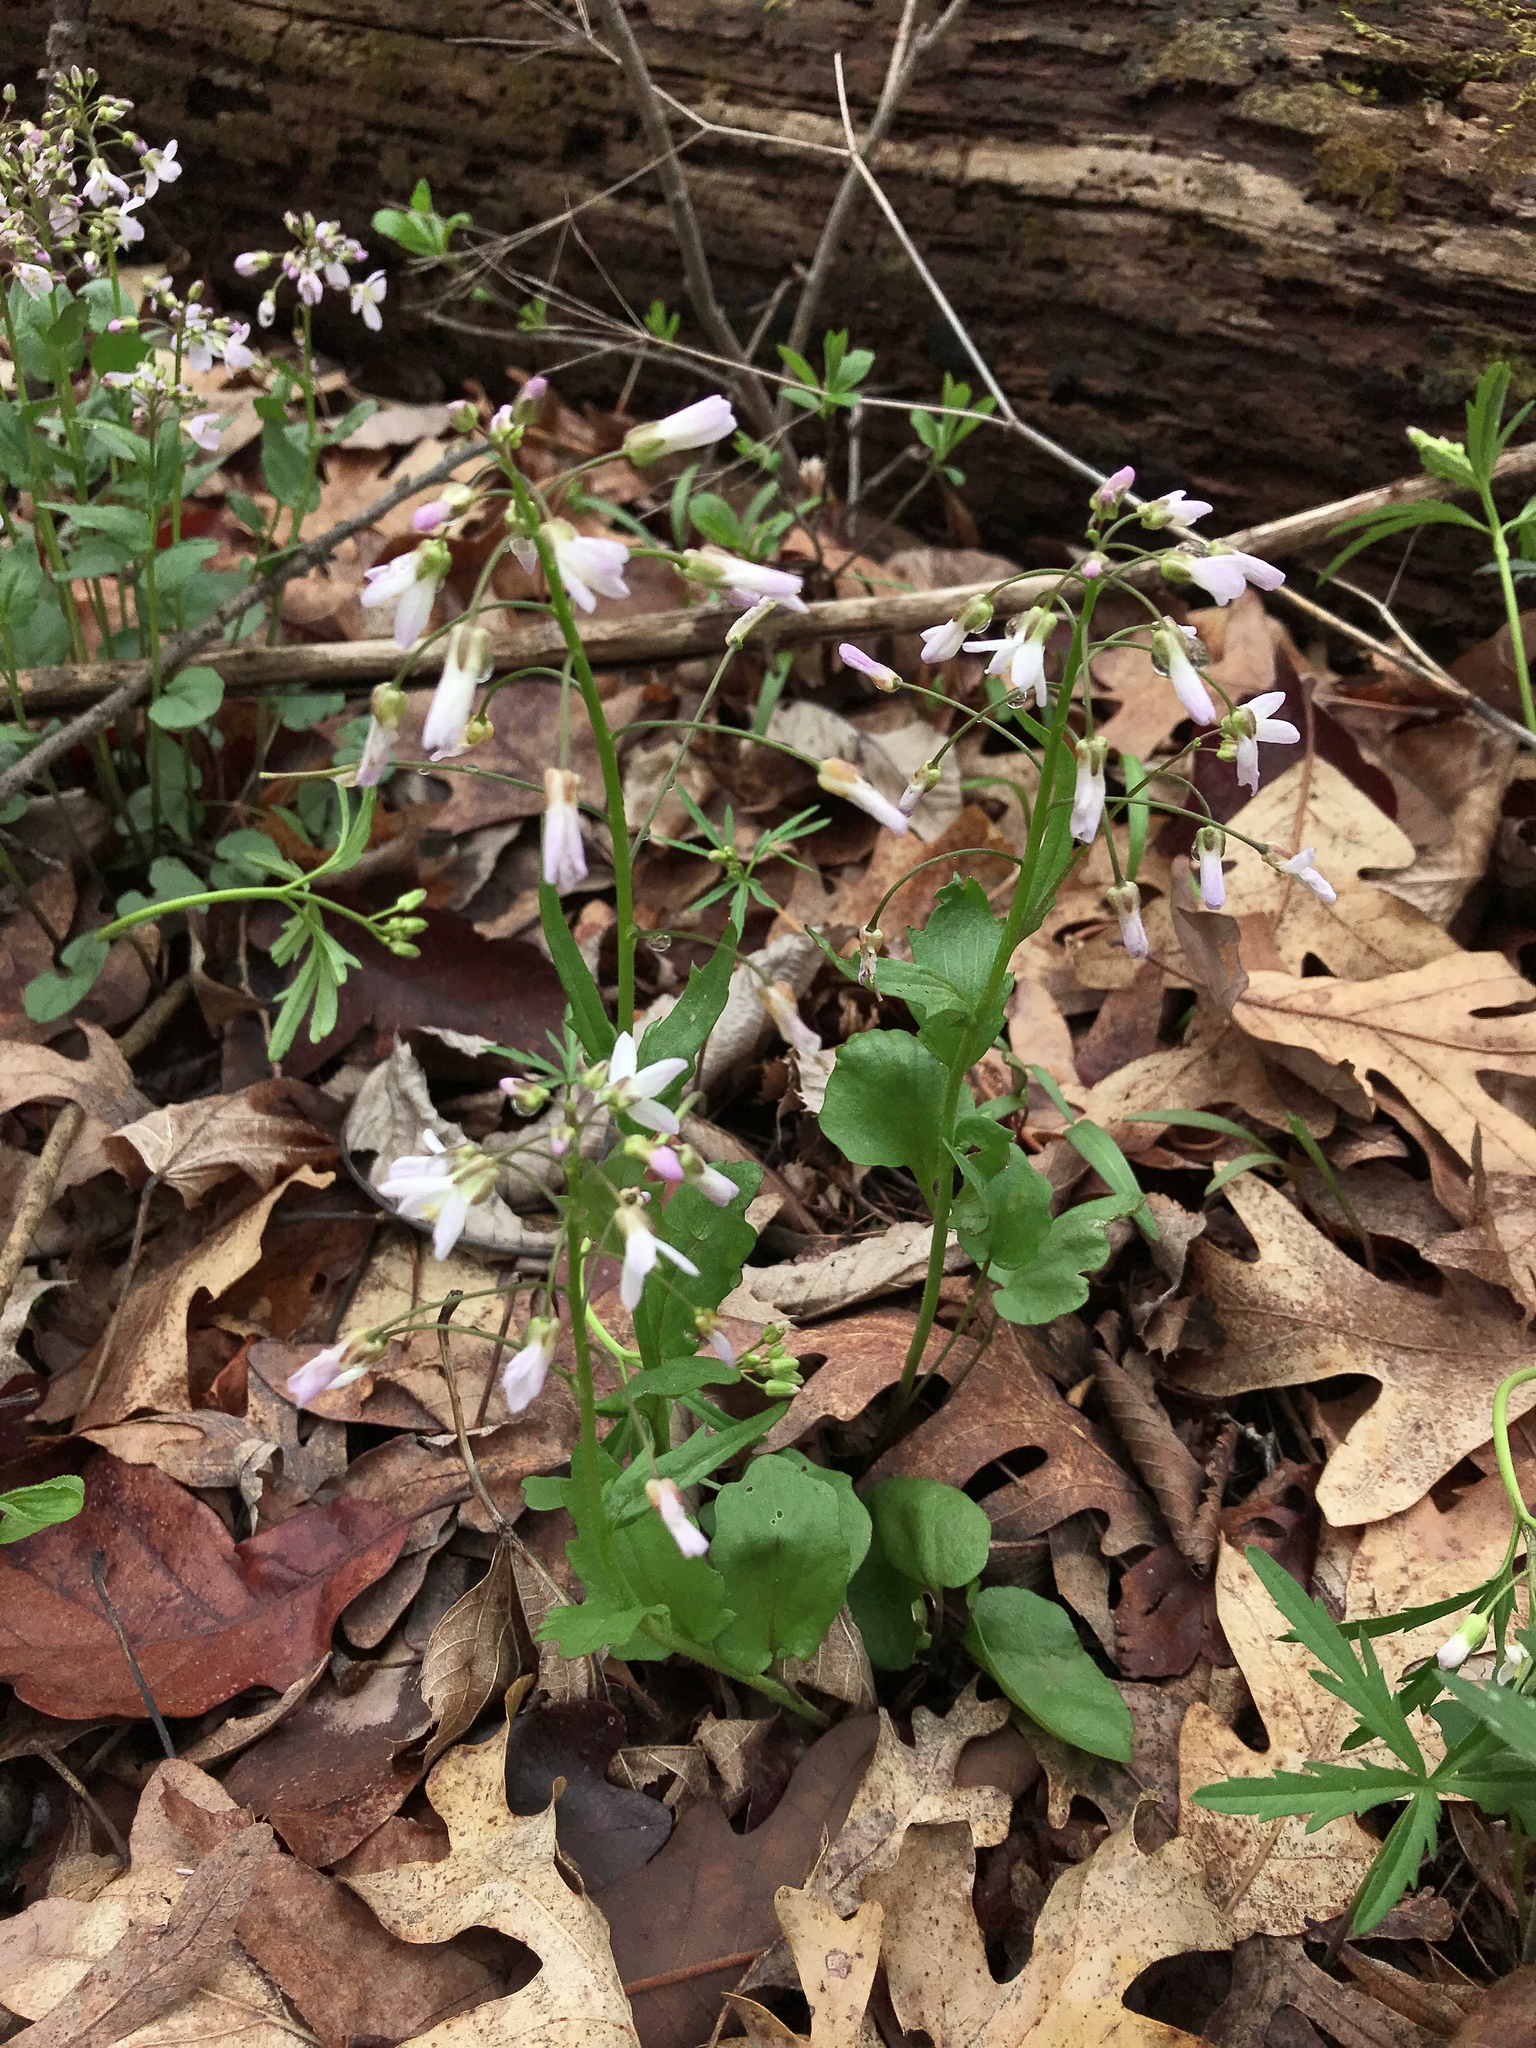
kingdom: Plantae
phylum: Tracheophyta
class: Magnoliopsida
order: Brassicales
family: Brassicaceae
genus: Cardamine
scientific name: Cardamine douglassii
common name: Purple cress
